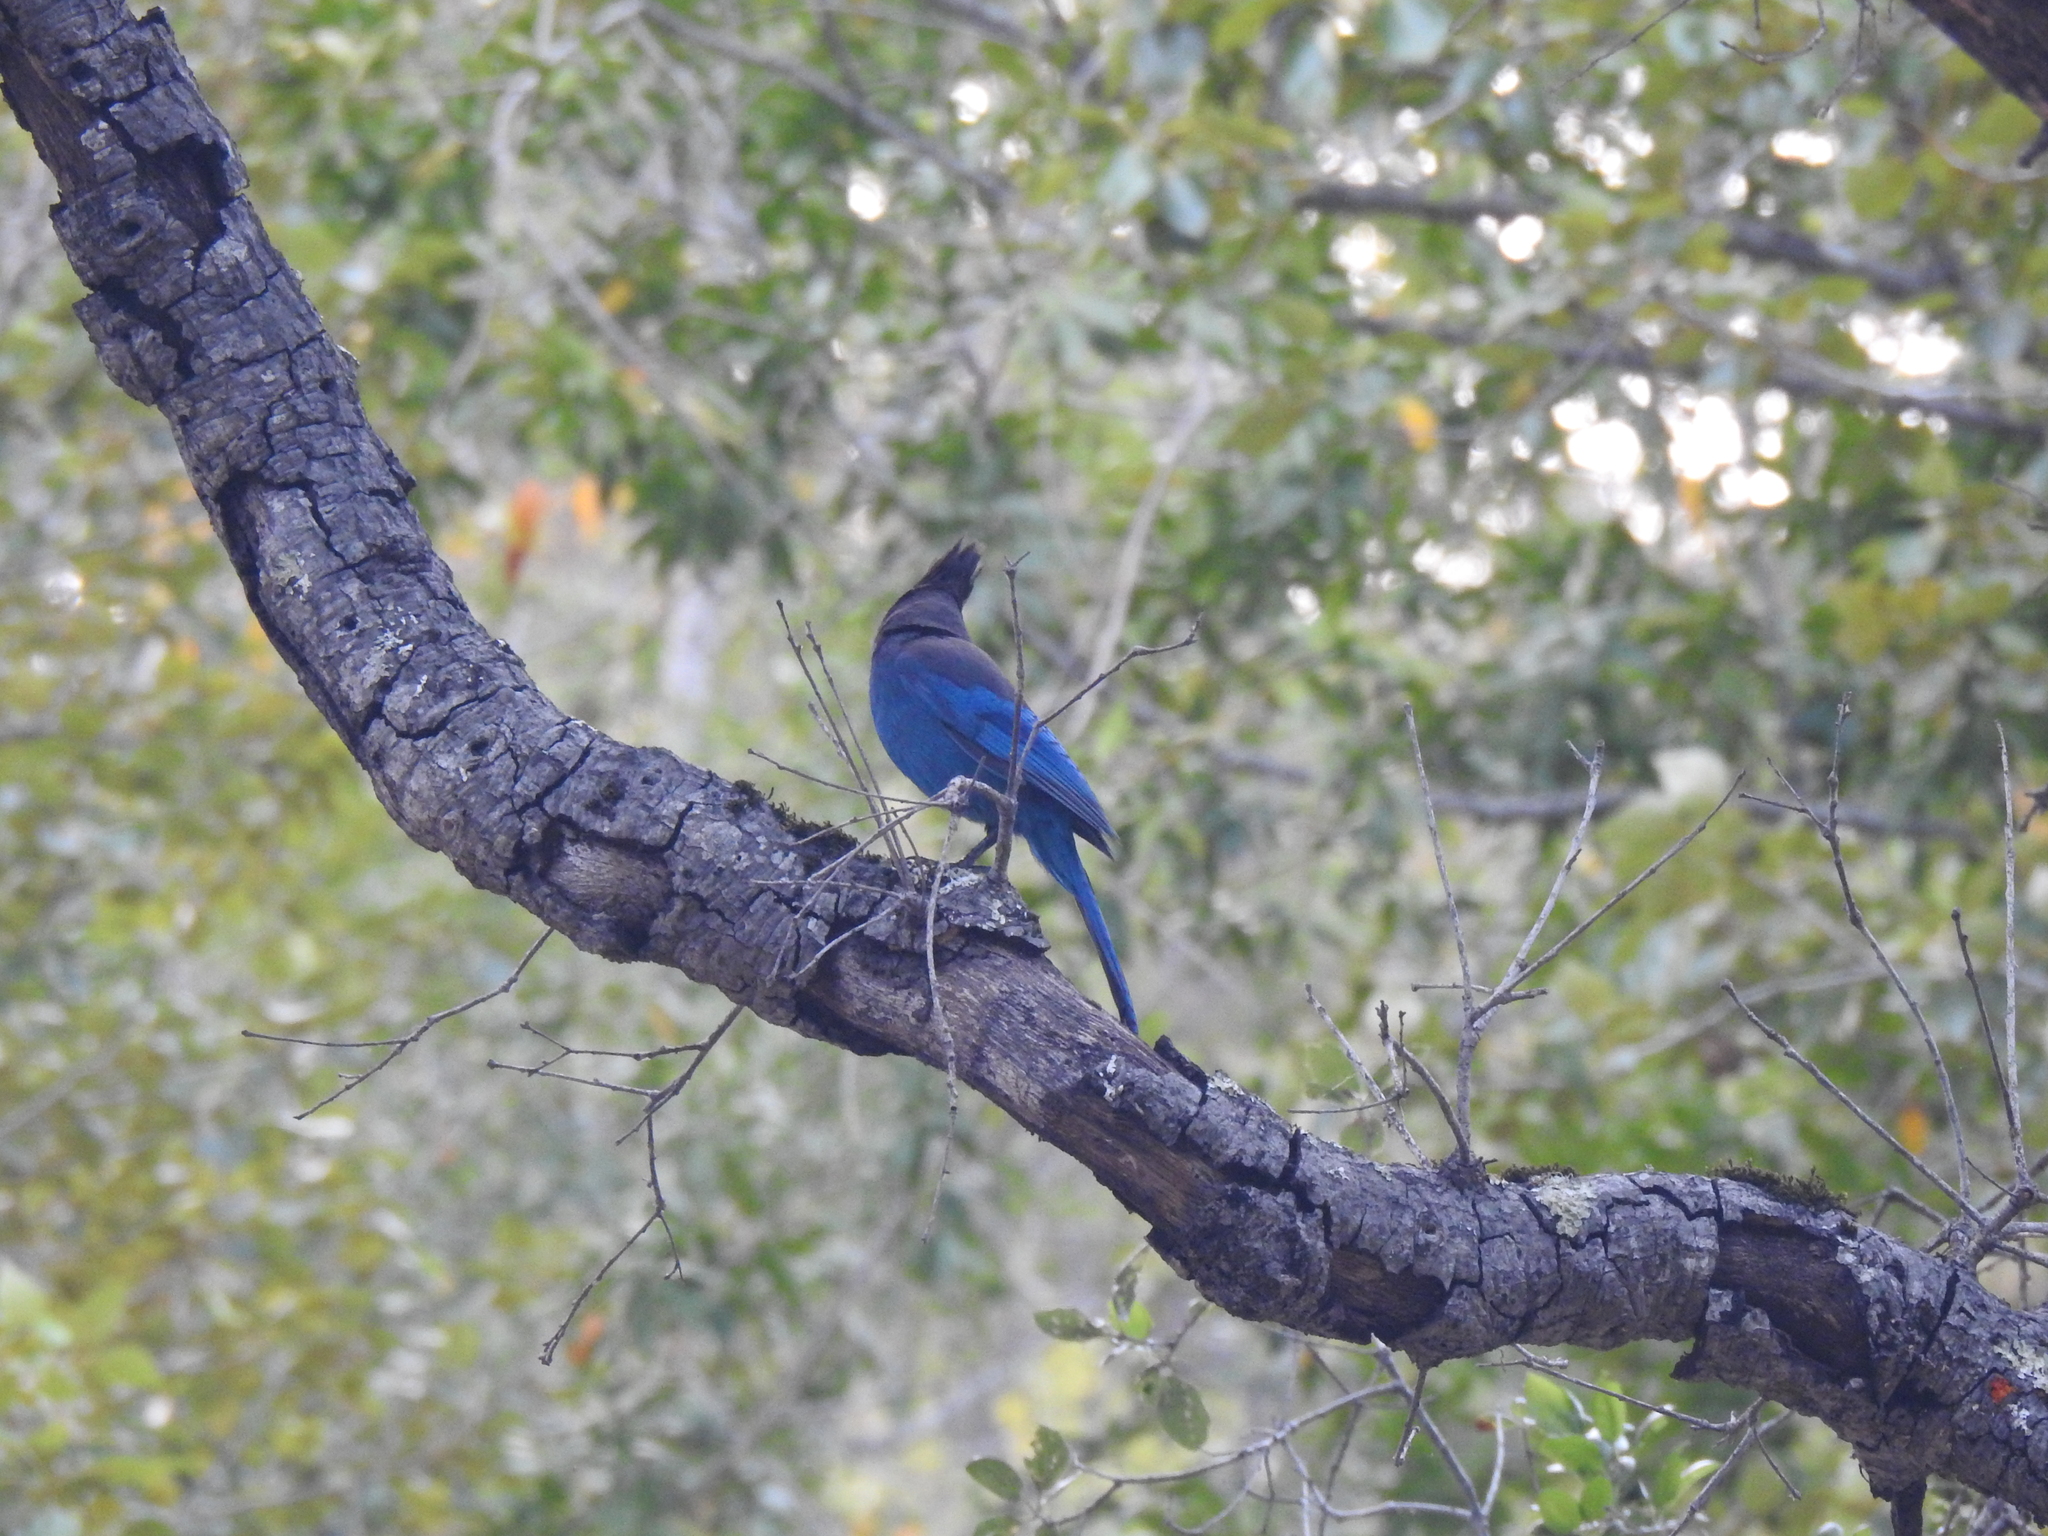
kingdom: Animalia
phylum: Chordata
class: Aves
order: Passeriformes
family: Corvidae
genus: Cyanocitta
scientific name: Cyanocitta stelleri
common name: Steller's jay
